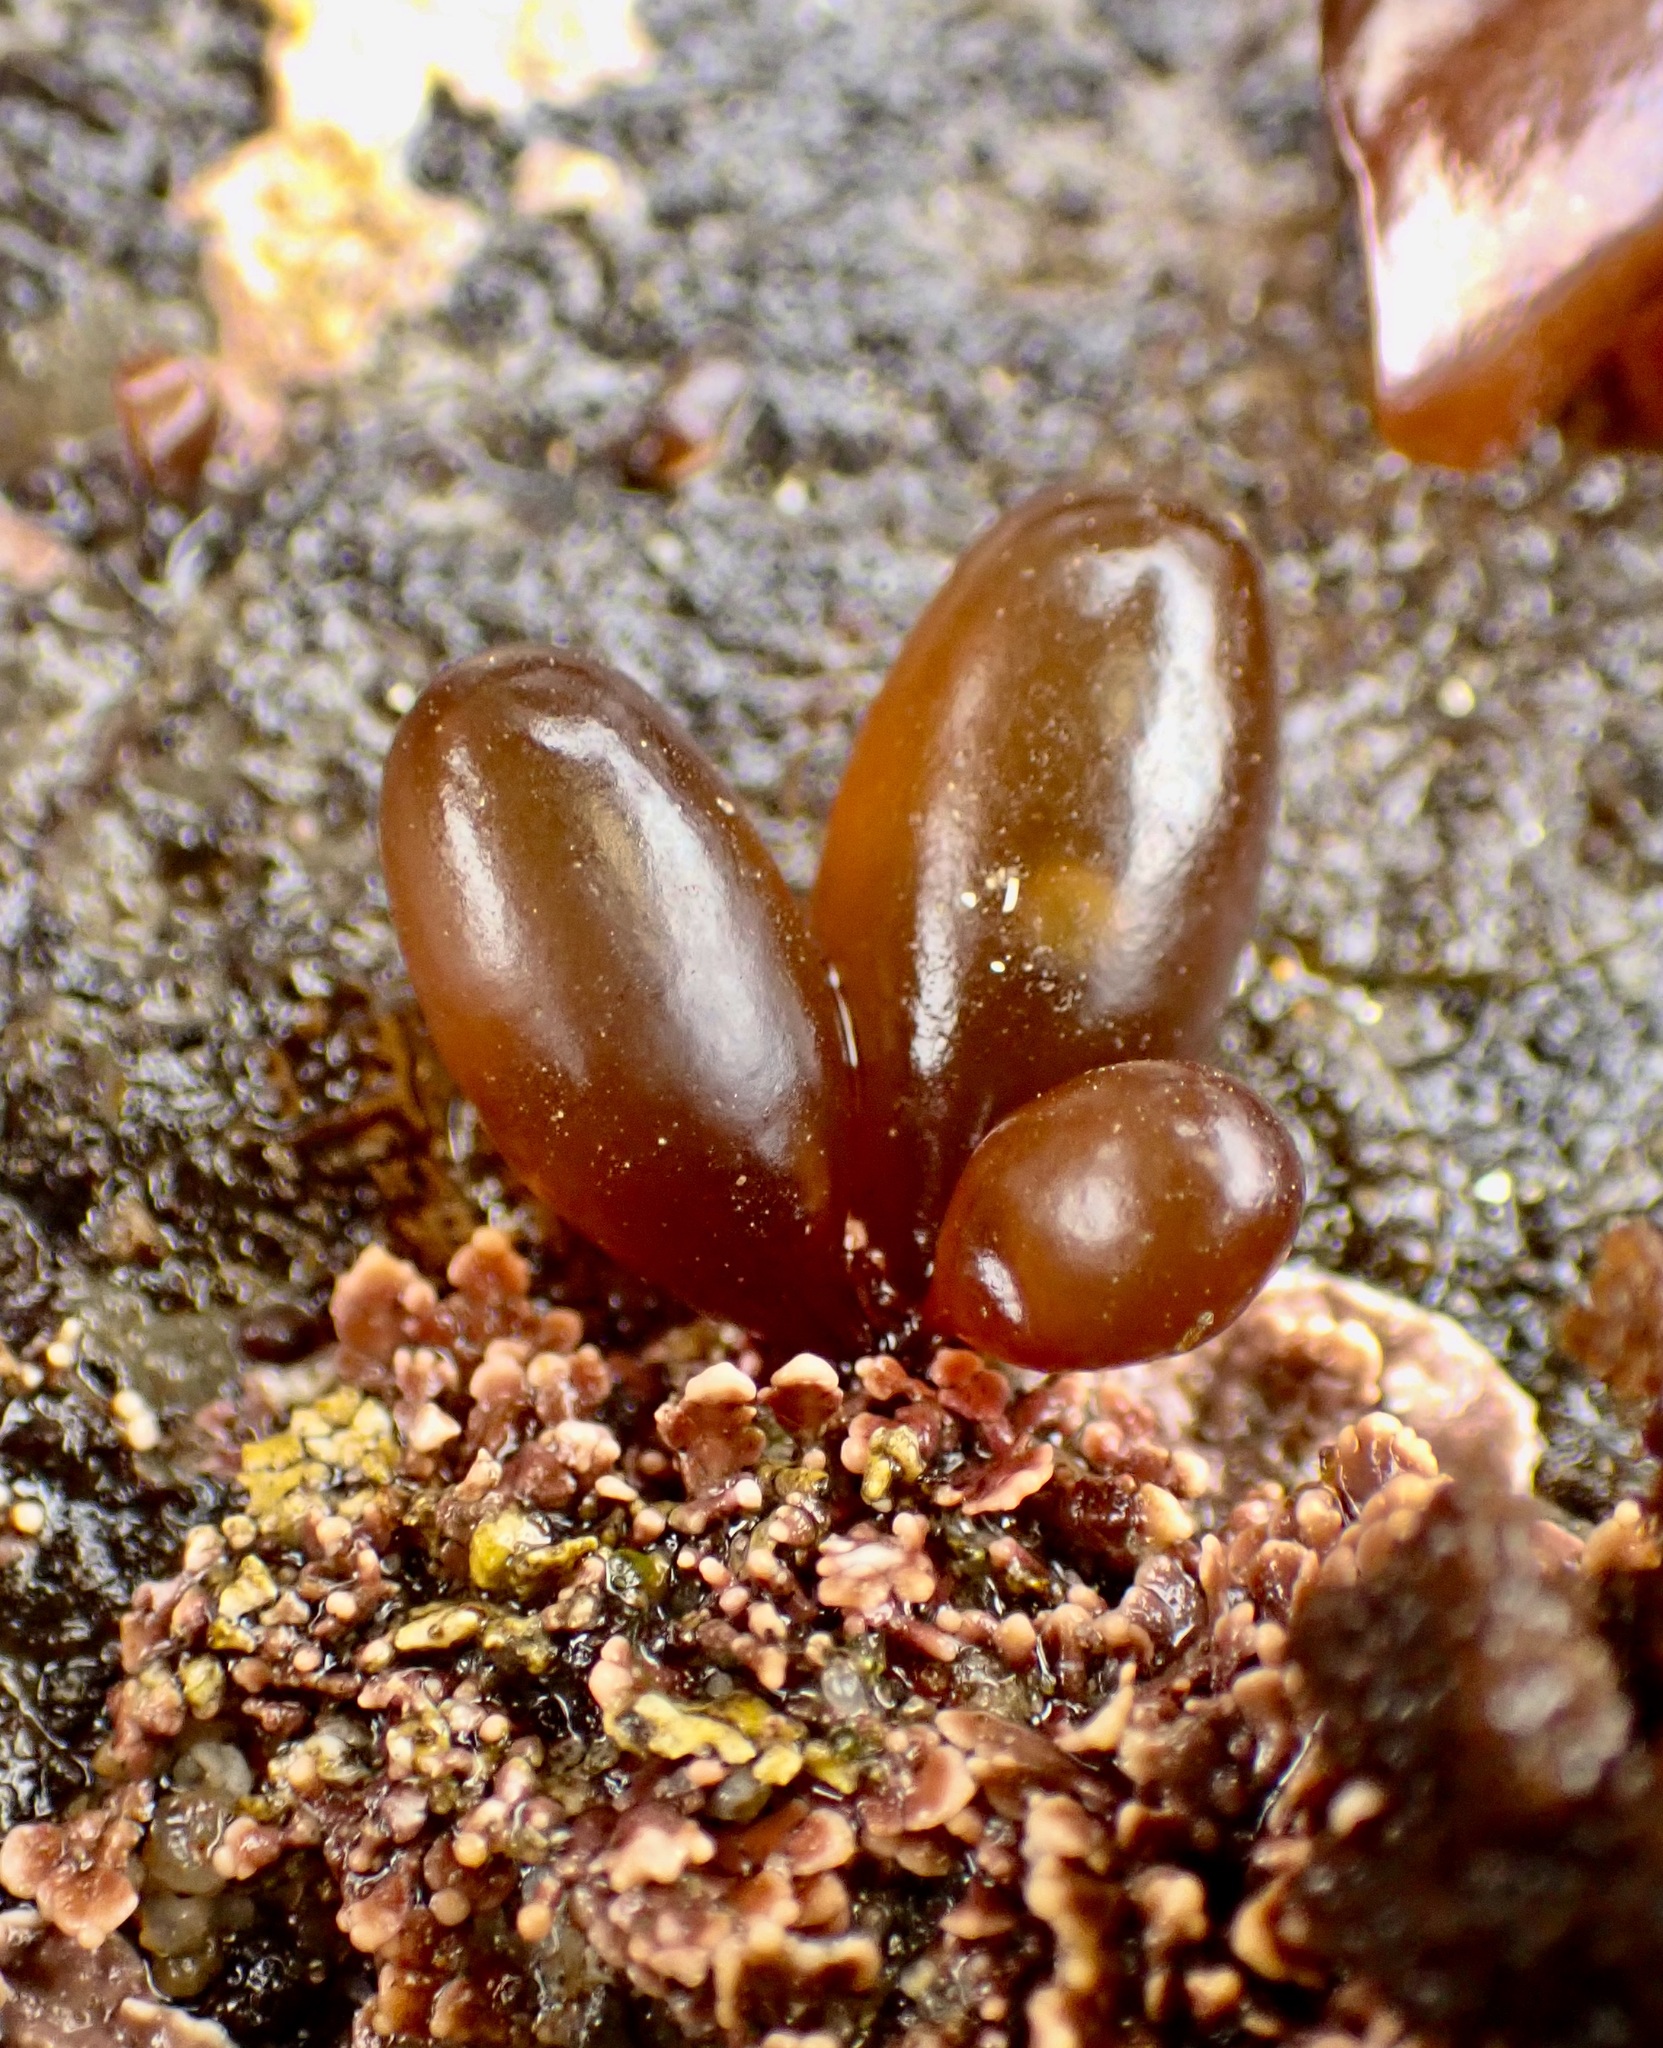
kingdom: Plantae
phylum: Rhodophyta
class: Florideophyceae
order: Palmariales
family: Palmariaceae
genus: Halosaccion
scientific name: Halosaccion glandiforme
